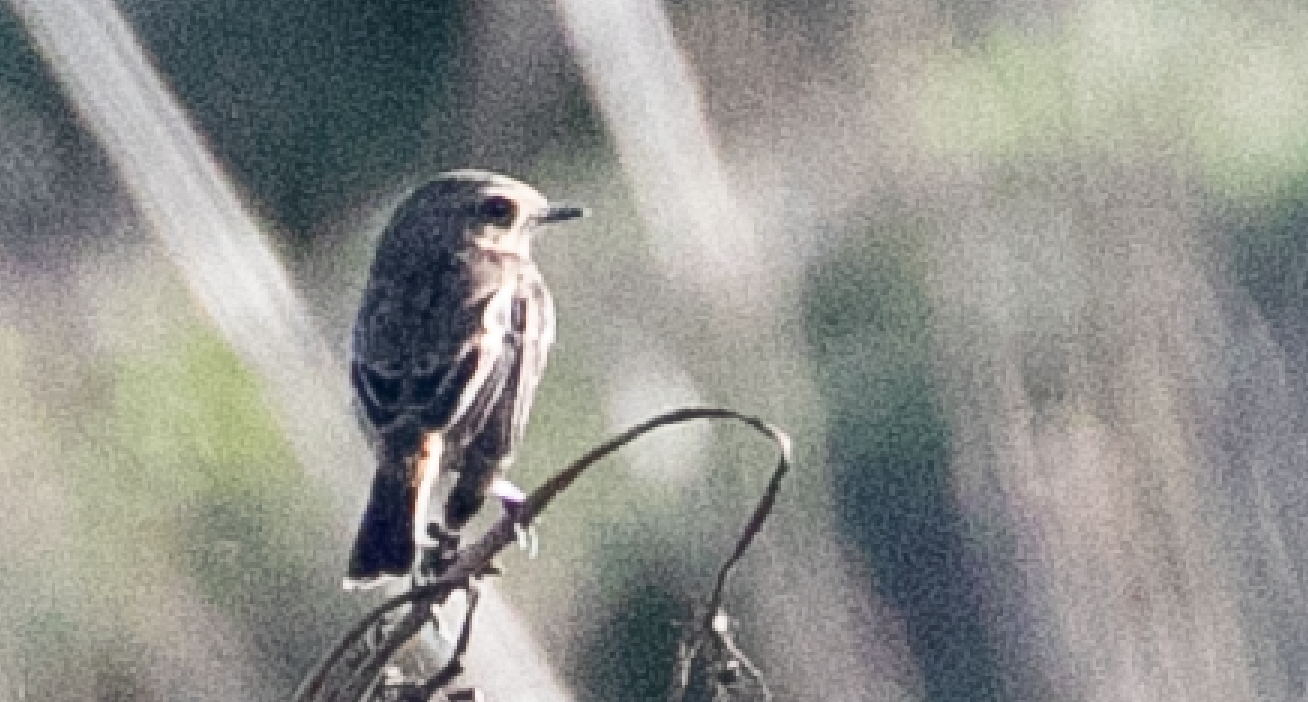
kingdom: Animalia
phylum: Chordata
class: Aves
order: Passeriformes
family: Muscicapidae
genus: Saxicola
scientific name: Saxicola rubicola
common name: European stonechat
